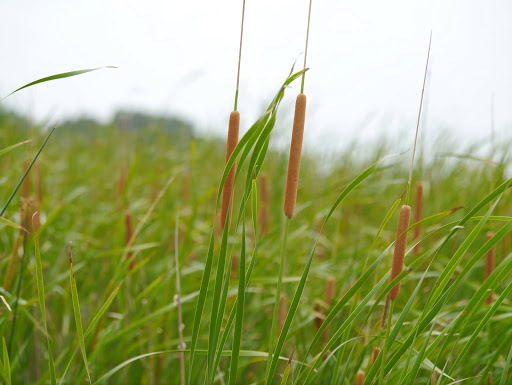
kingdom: Plantae
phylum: Tracheophyta
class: Liliopsida
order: Poales
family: Typhaceae
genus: Typha
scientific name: Typha domingensis
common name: Southern cattail
